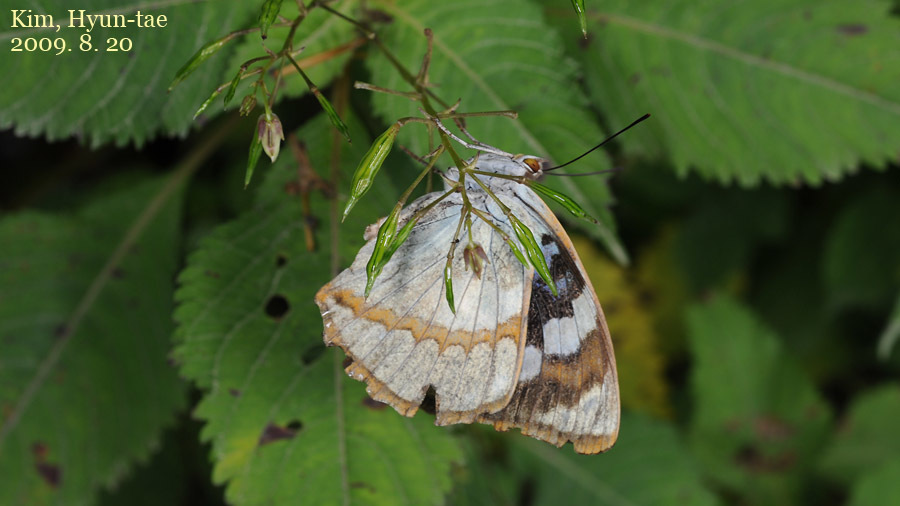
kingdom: Animalia
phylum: Arthropoda
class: Insecta
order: Lepidoptera
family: Nymphalidae
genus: Apatura
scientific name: Apatura Mimathyma schrencki
